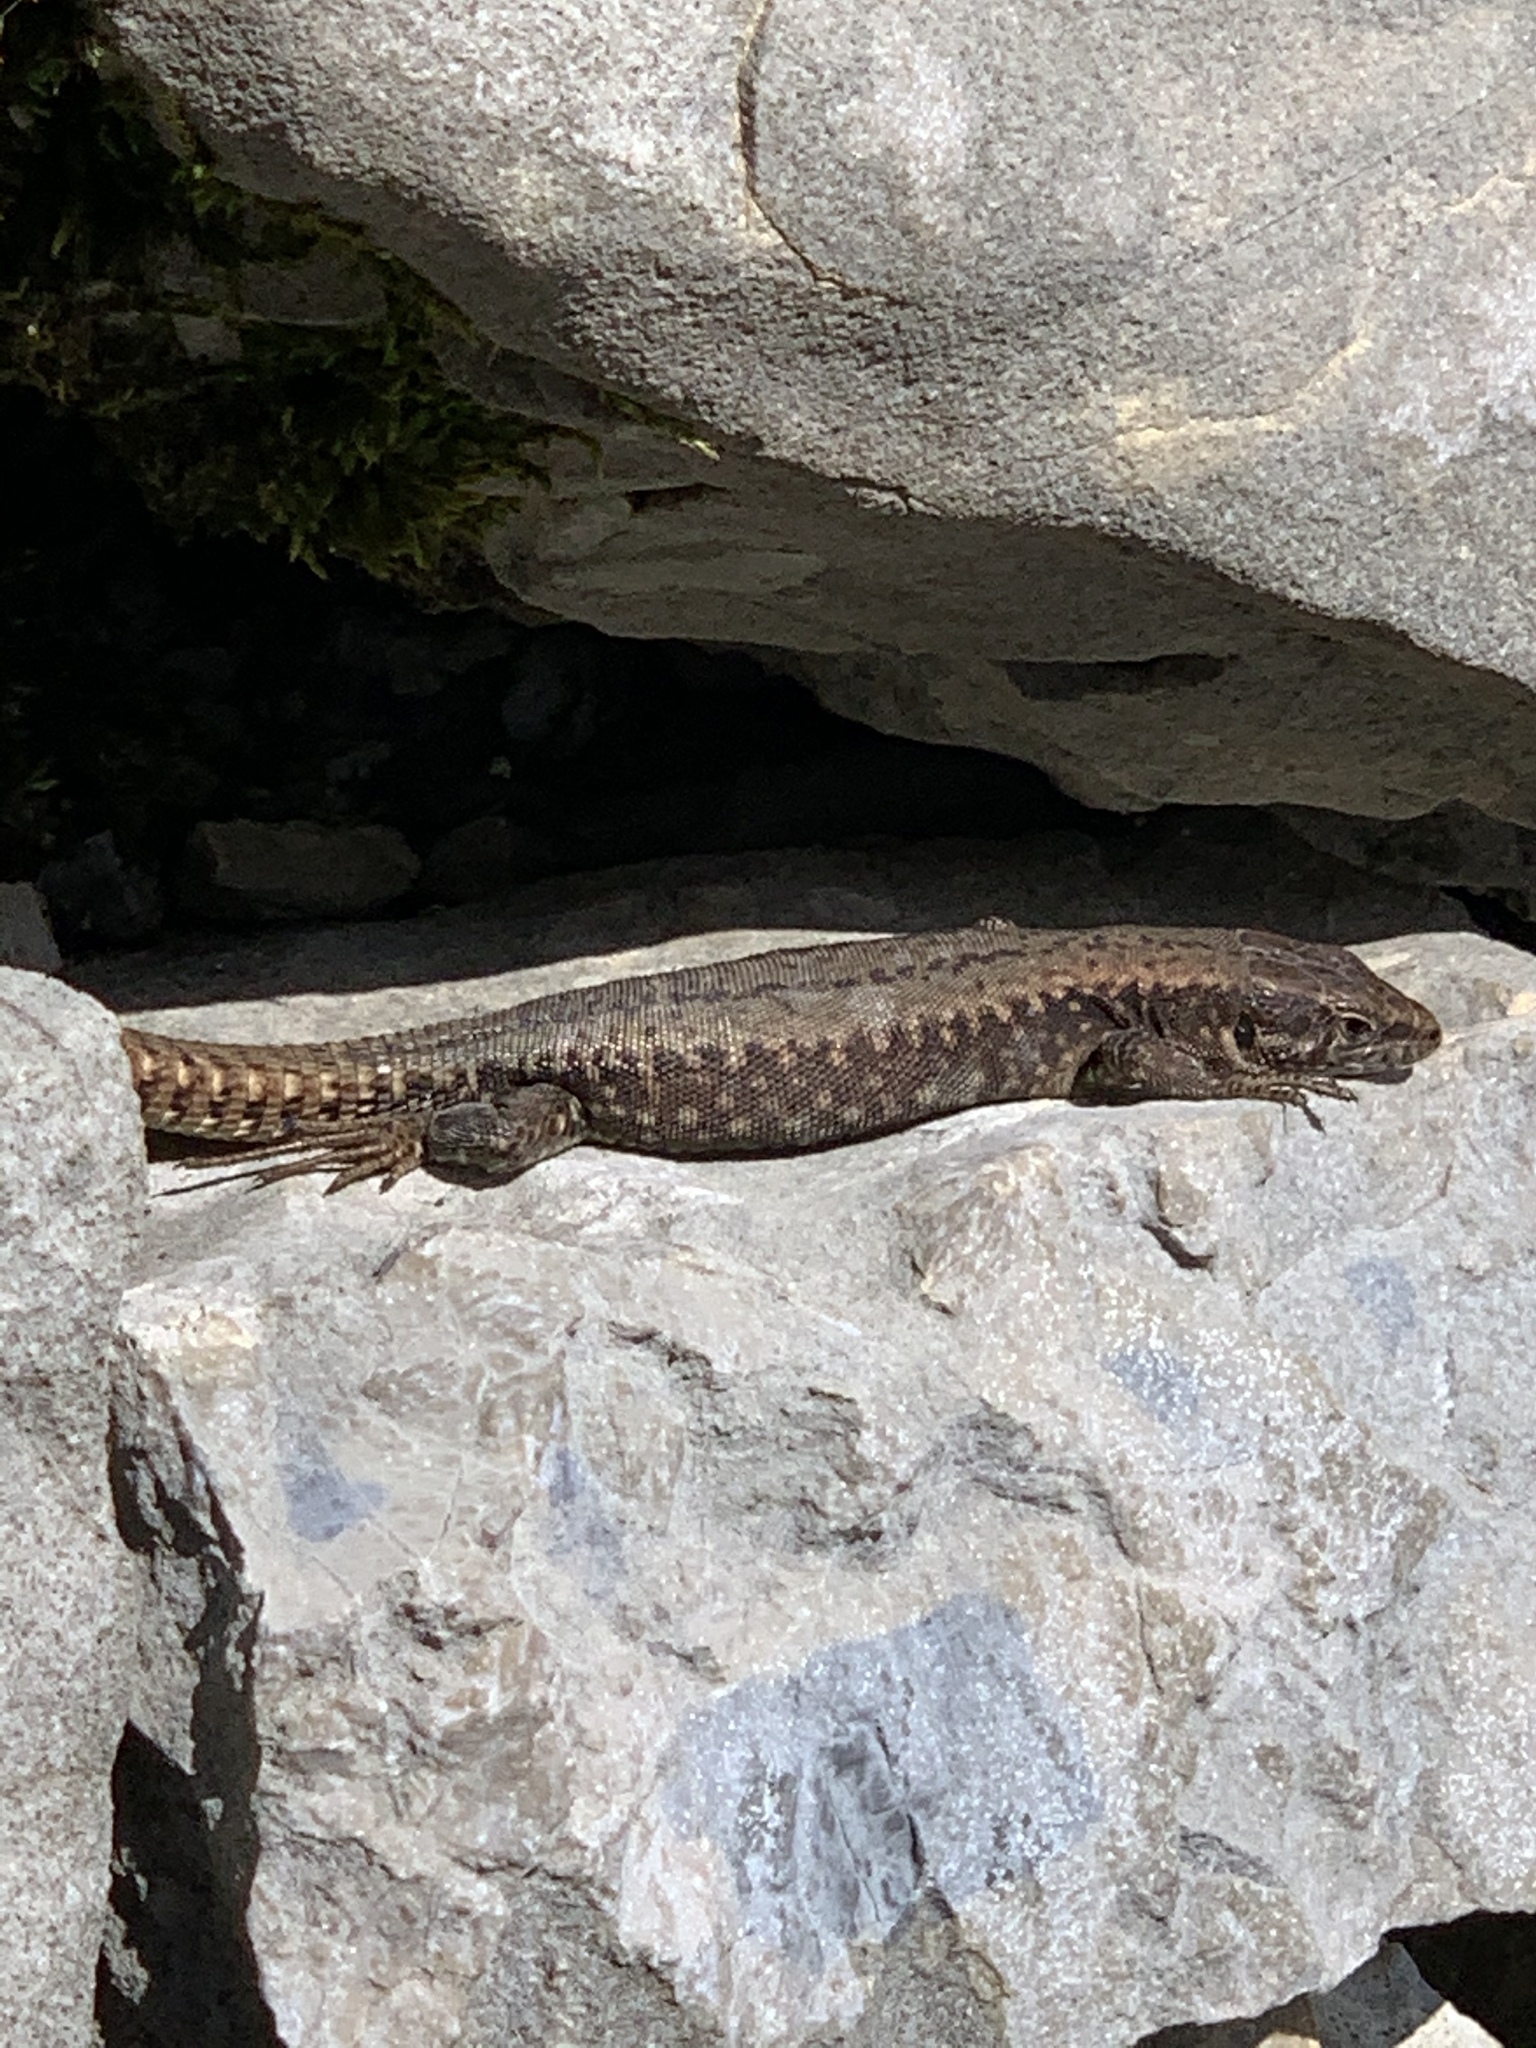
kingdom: Animalia
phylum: Chordata
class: Squamata
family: Lacertidae
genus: Podarcis
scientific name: Podarcis muralis
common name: Common wall lizard
